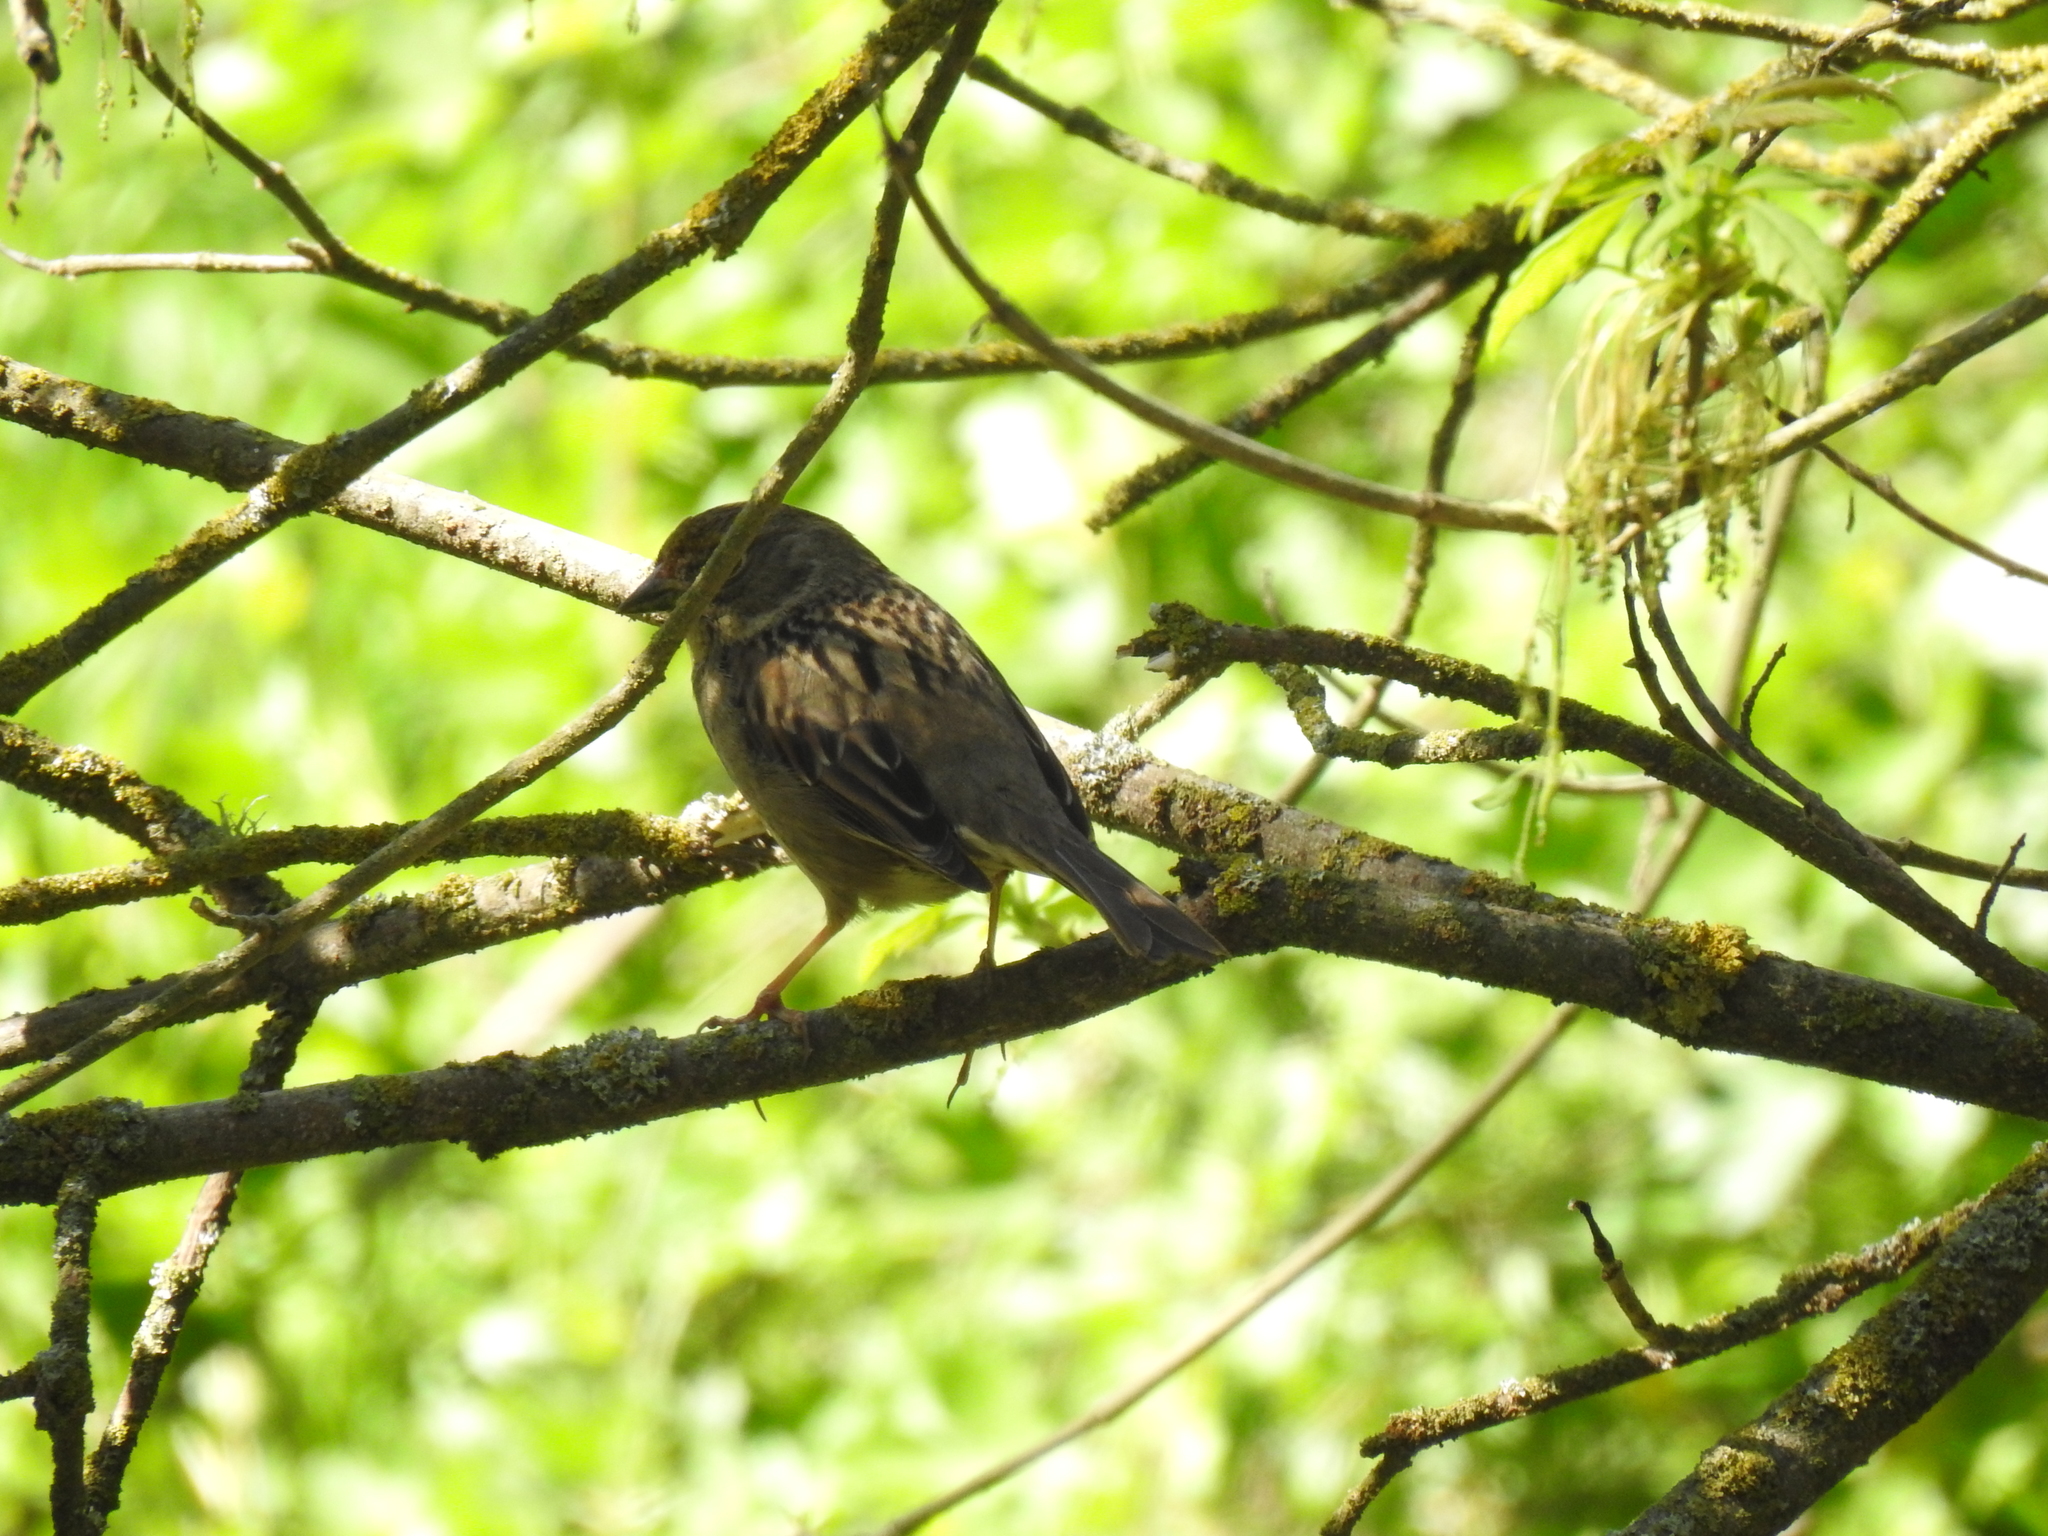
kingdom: Animalia
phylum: Chordata
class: Aves
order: Passeriformes
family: Passerellidae
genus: Zonotrichia
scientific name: Zonotrichia atricapilla
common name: Golden-crowned sparrow
